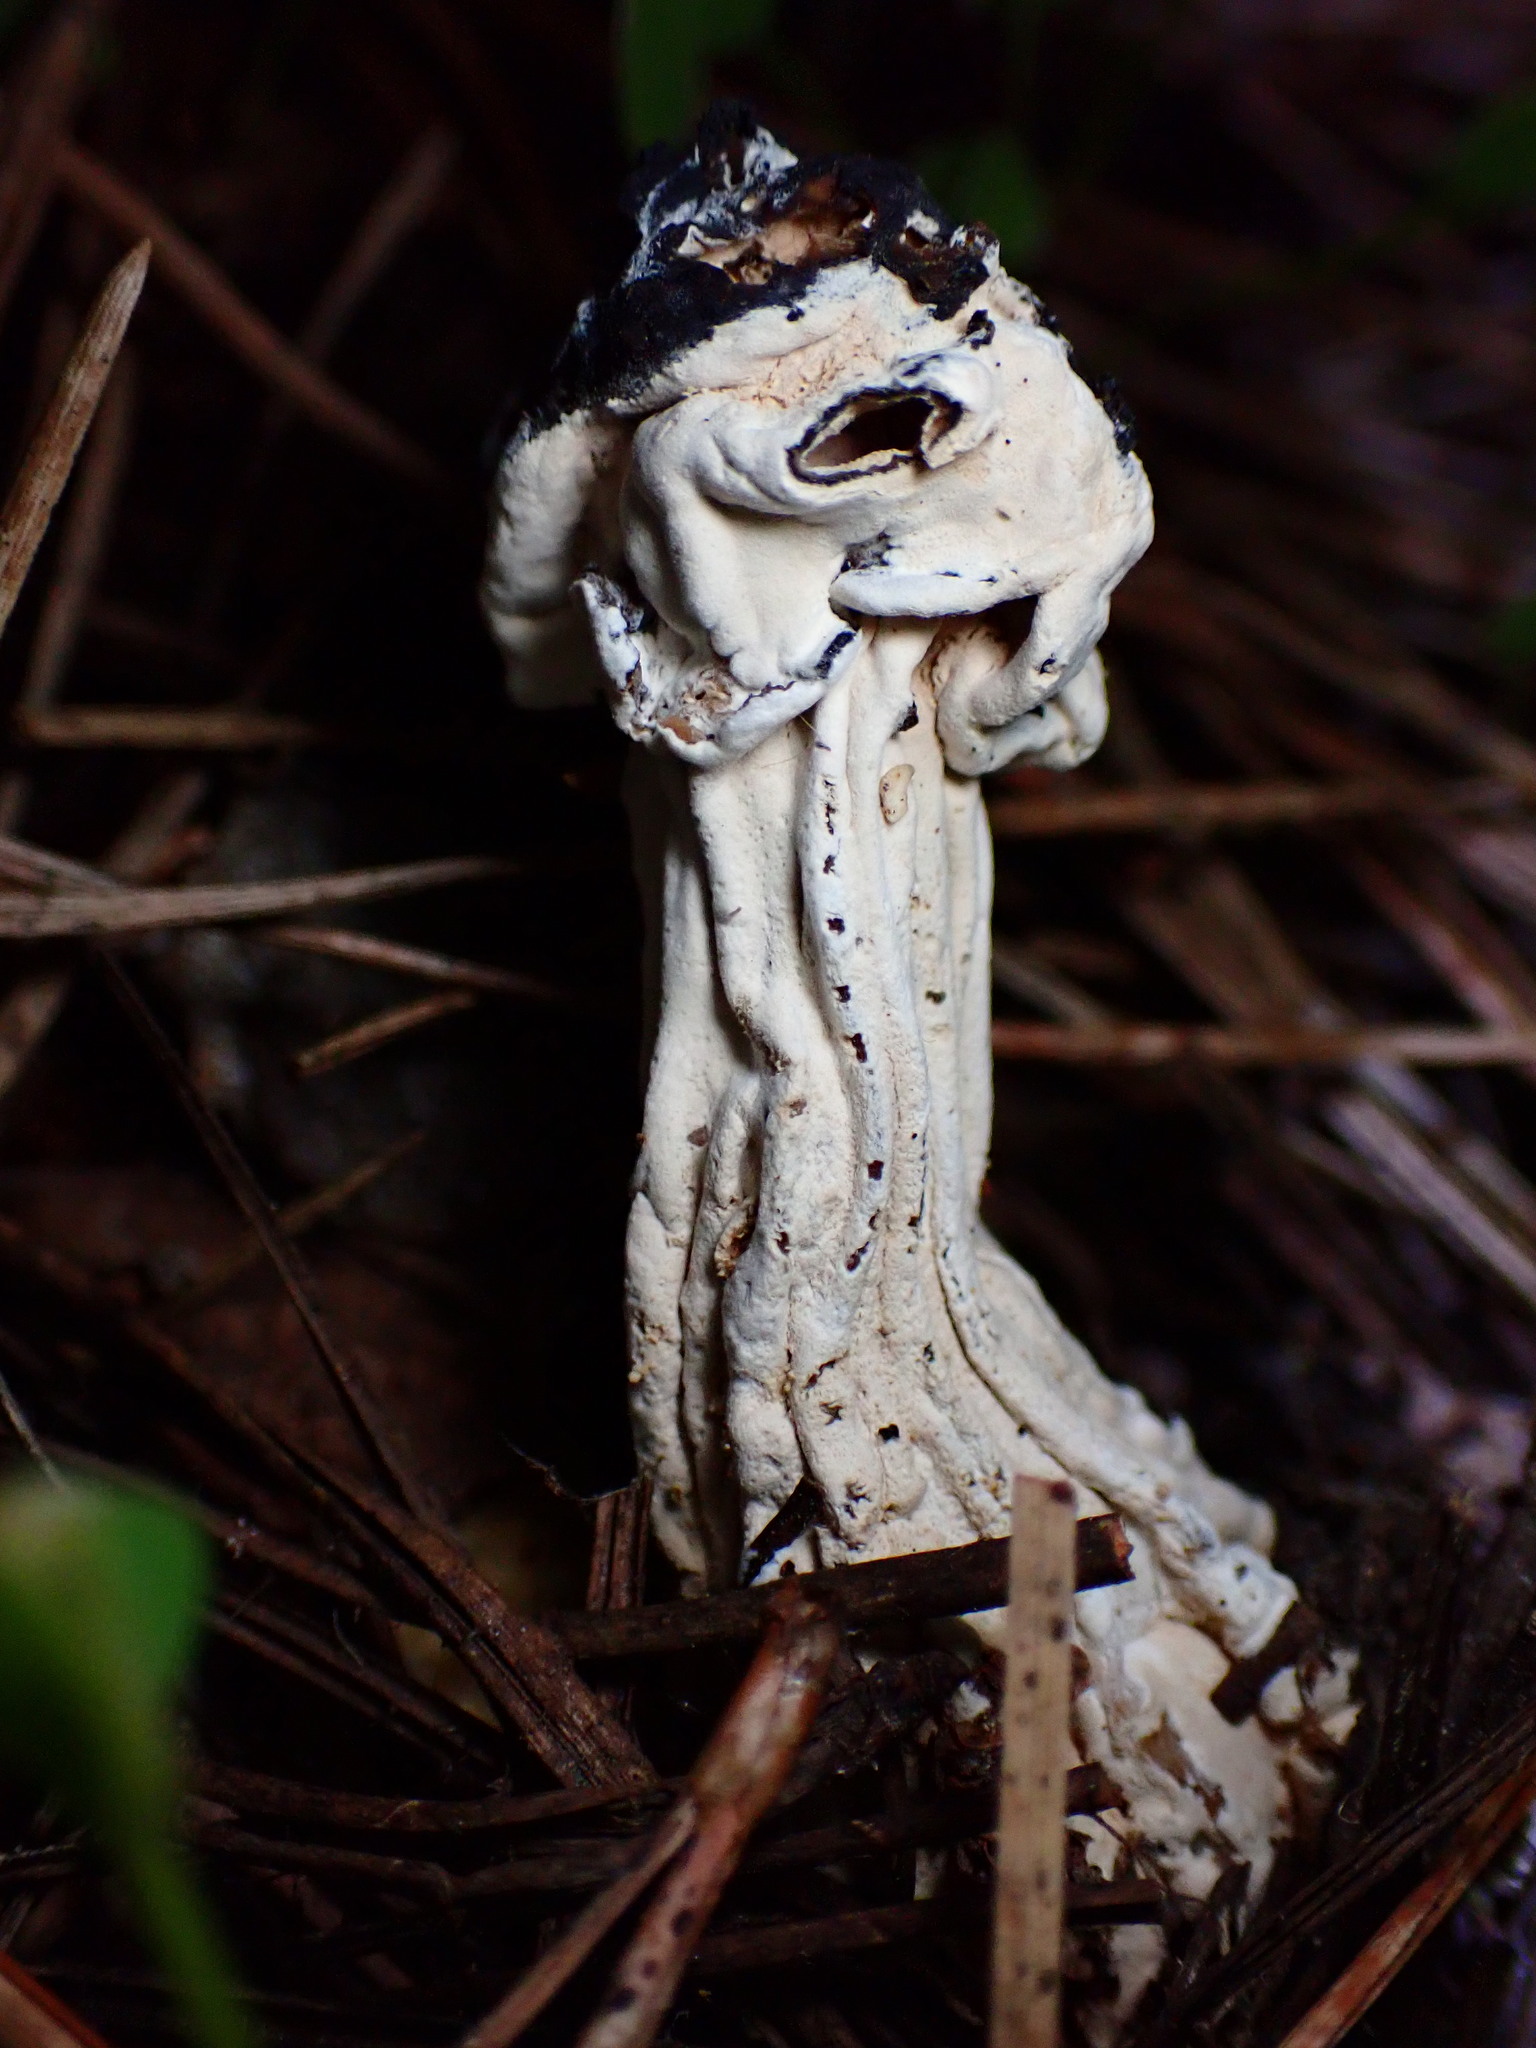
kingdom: Fungi
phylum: Ascomycota
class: Sordariomycetes
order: Hypocreales
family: Hypocreaceae
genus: Hypomyces
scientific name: Hypomyces cervinus
